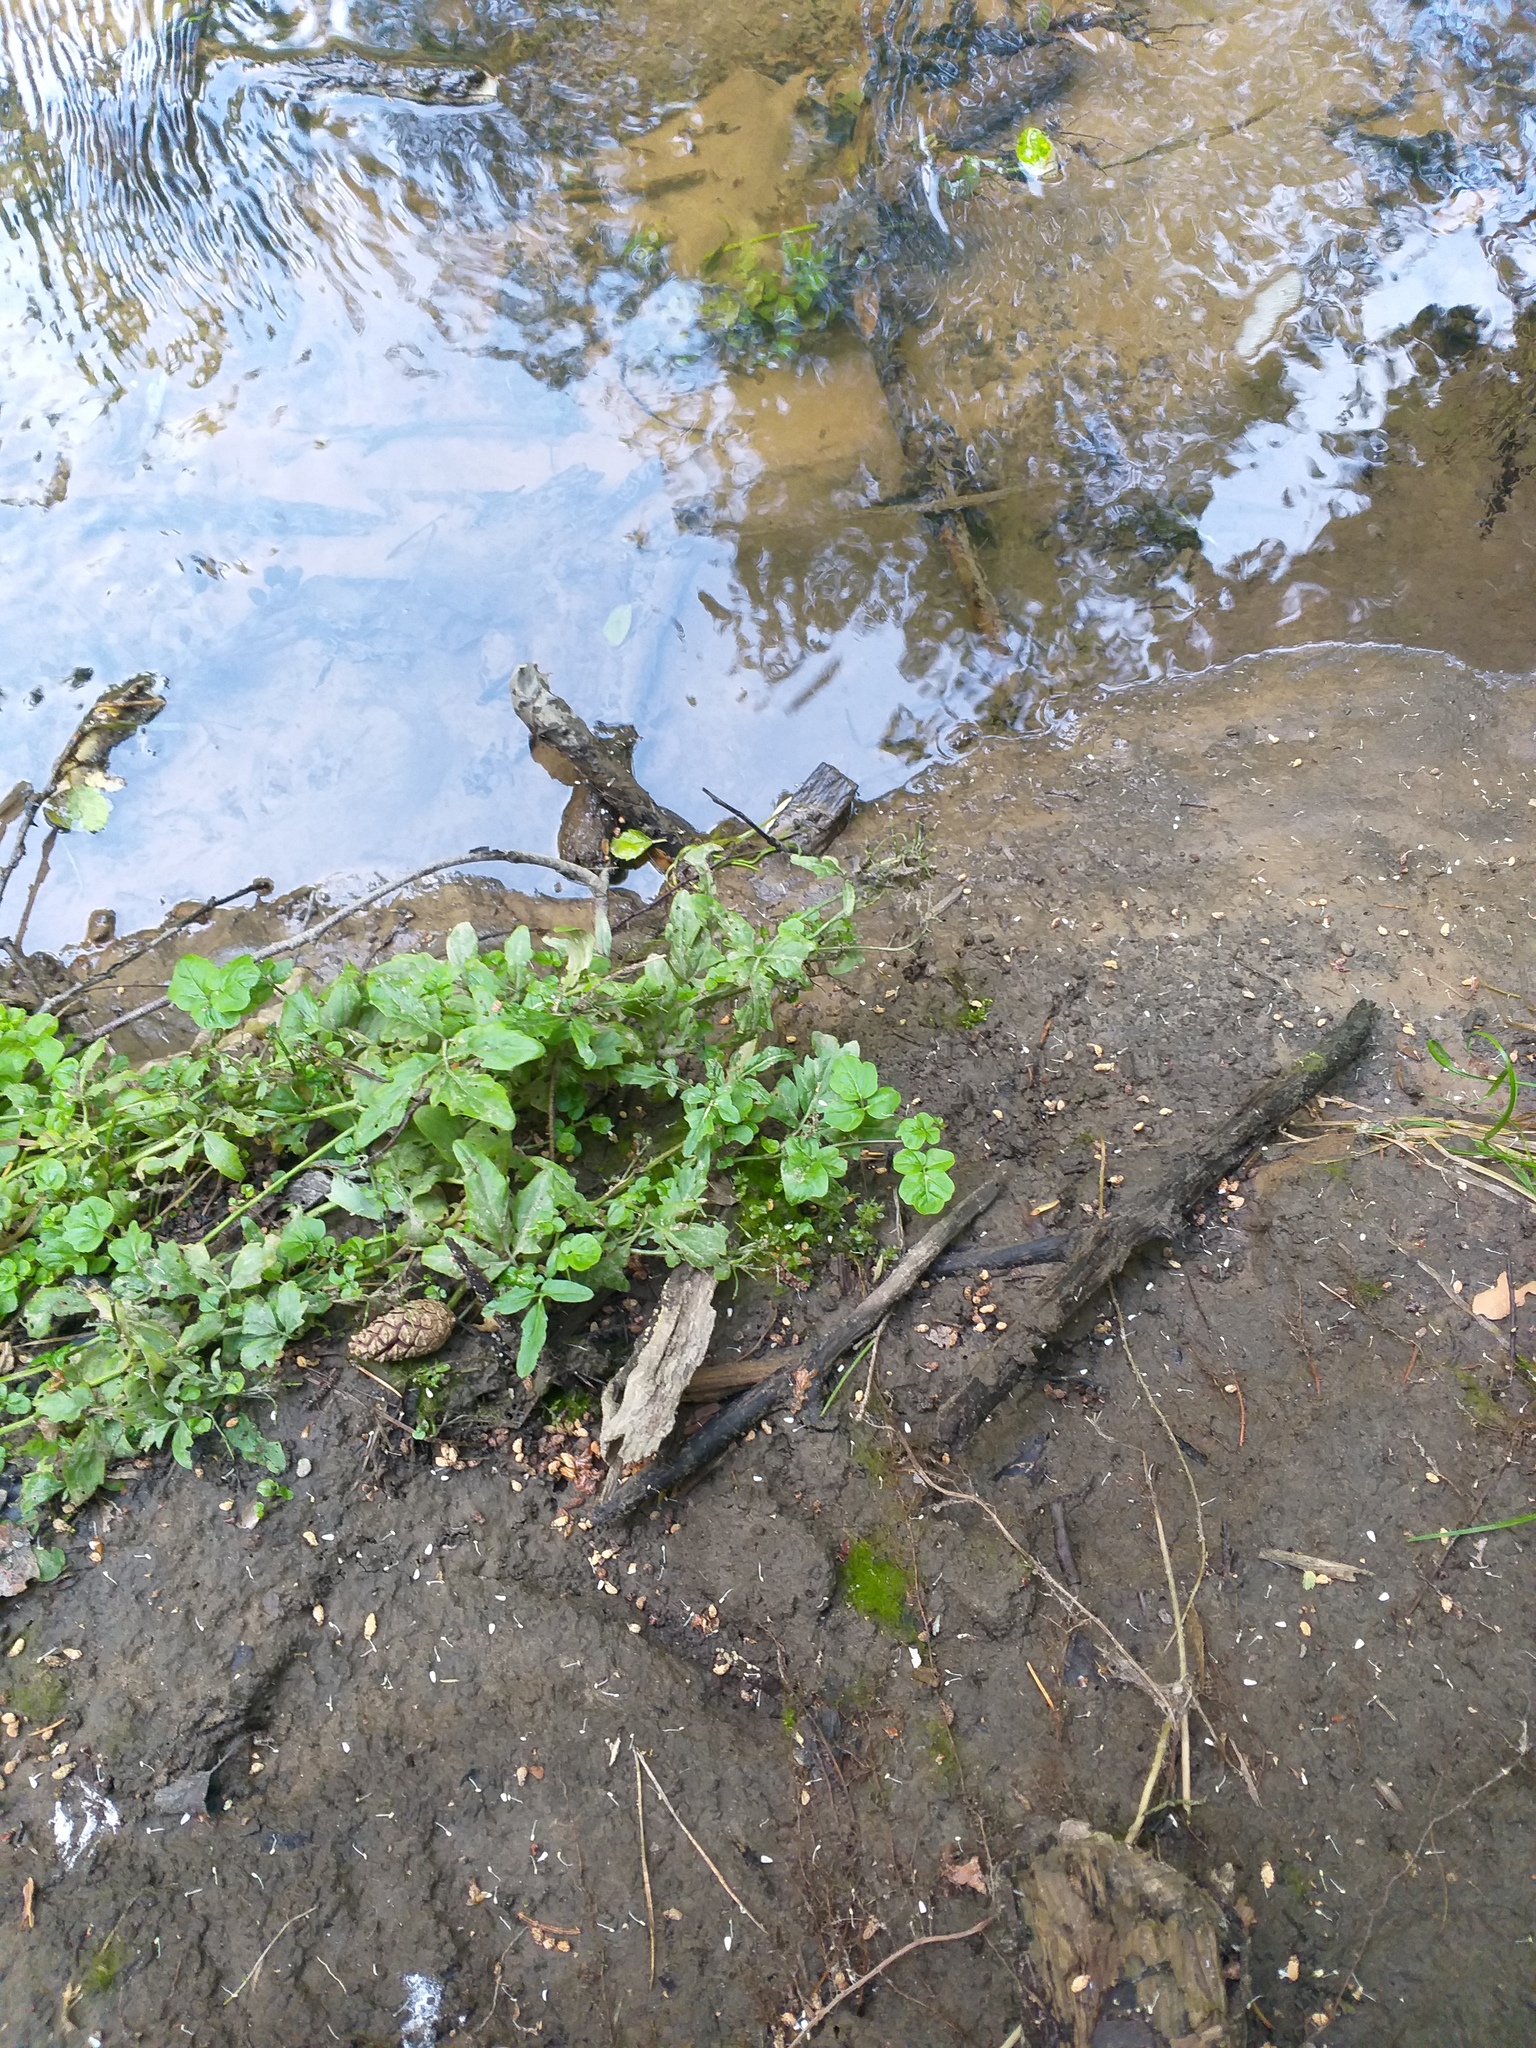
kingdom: Plantae
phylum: Tracheophyta
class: Magnoliopsida
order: Brassicales
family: Brassicaceae
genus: Cardamine
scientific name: Cardamine amara
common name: Large bitter-cress
